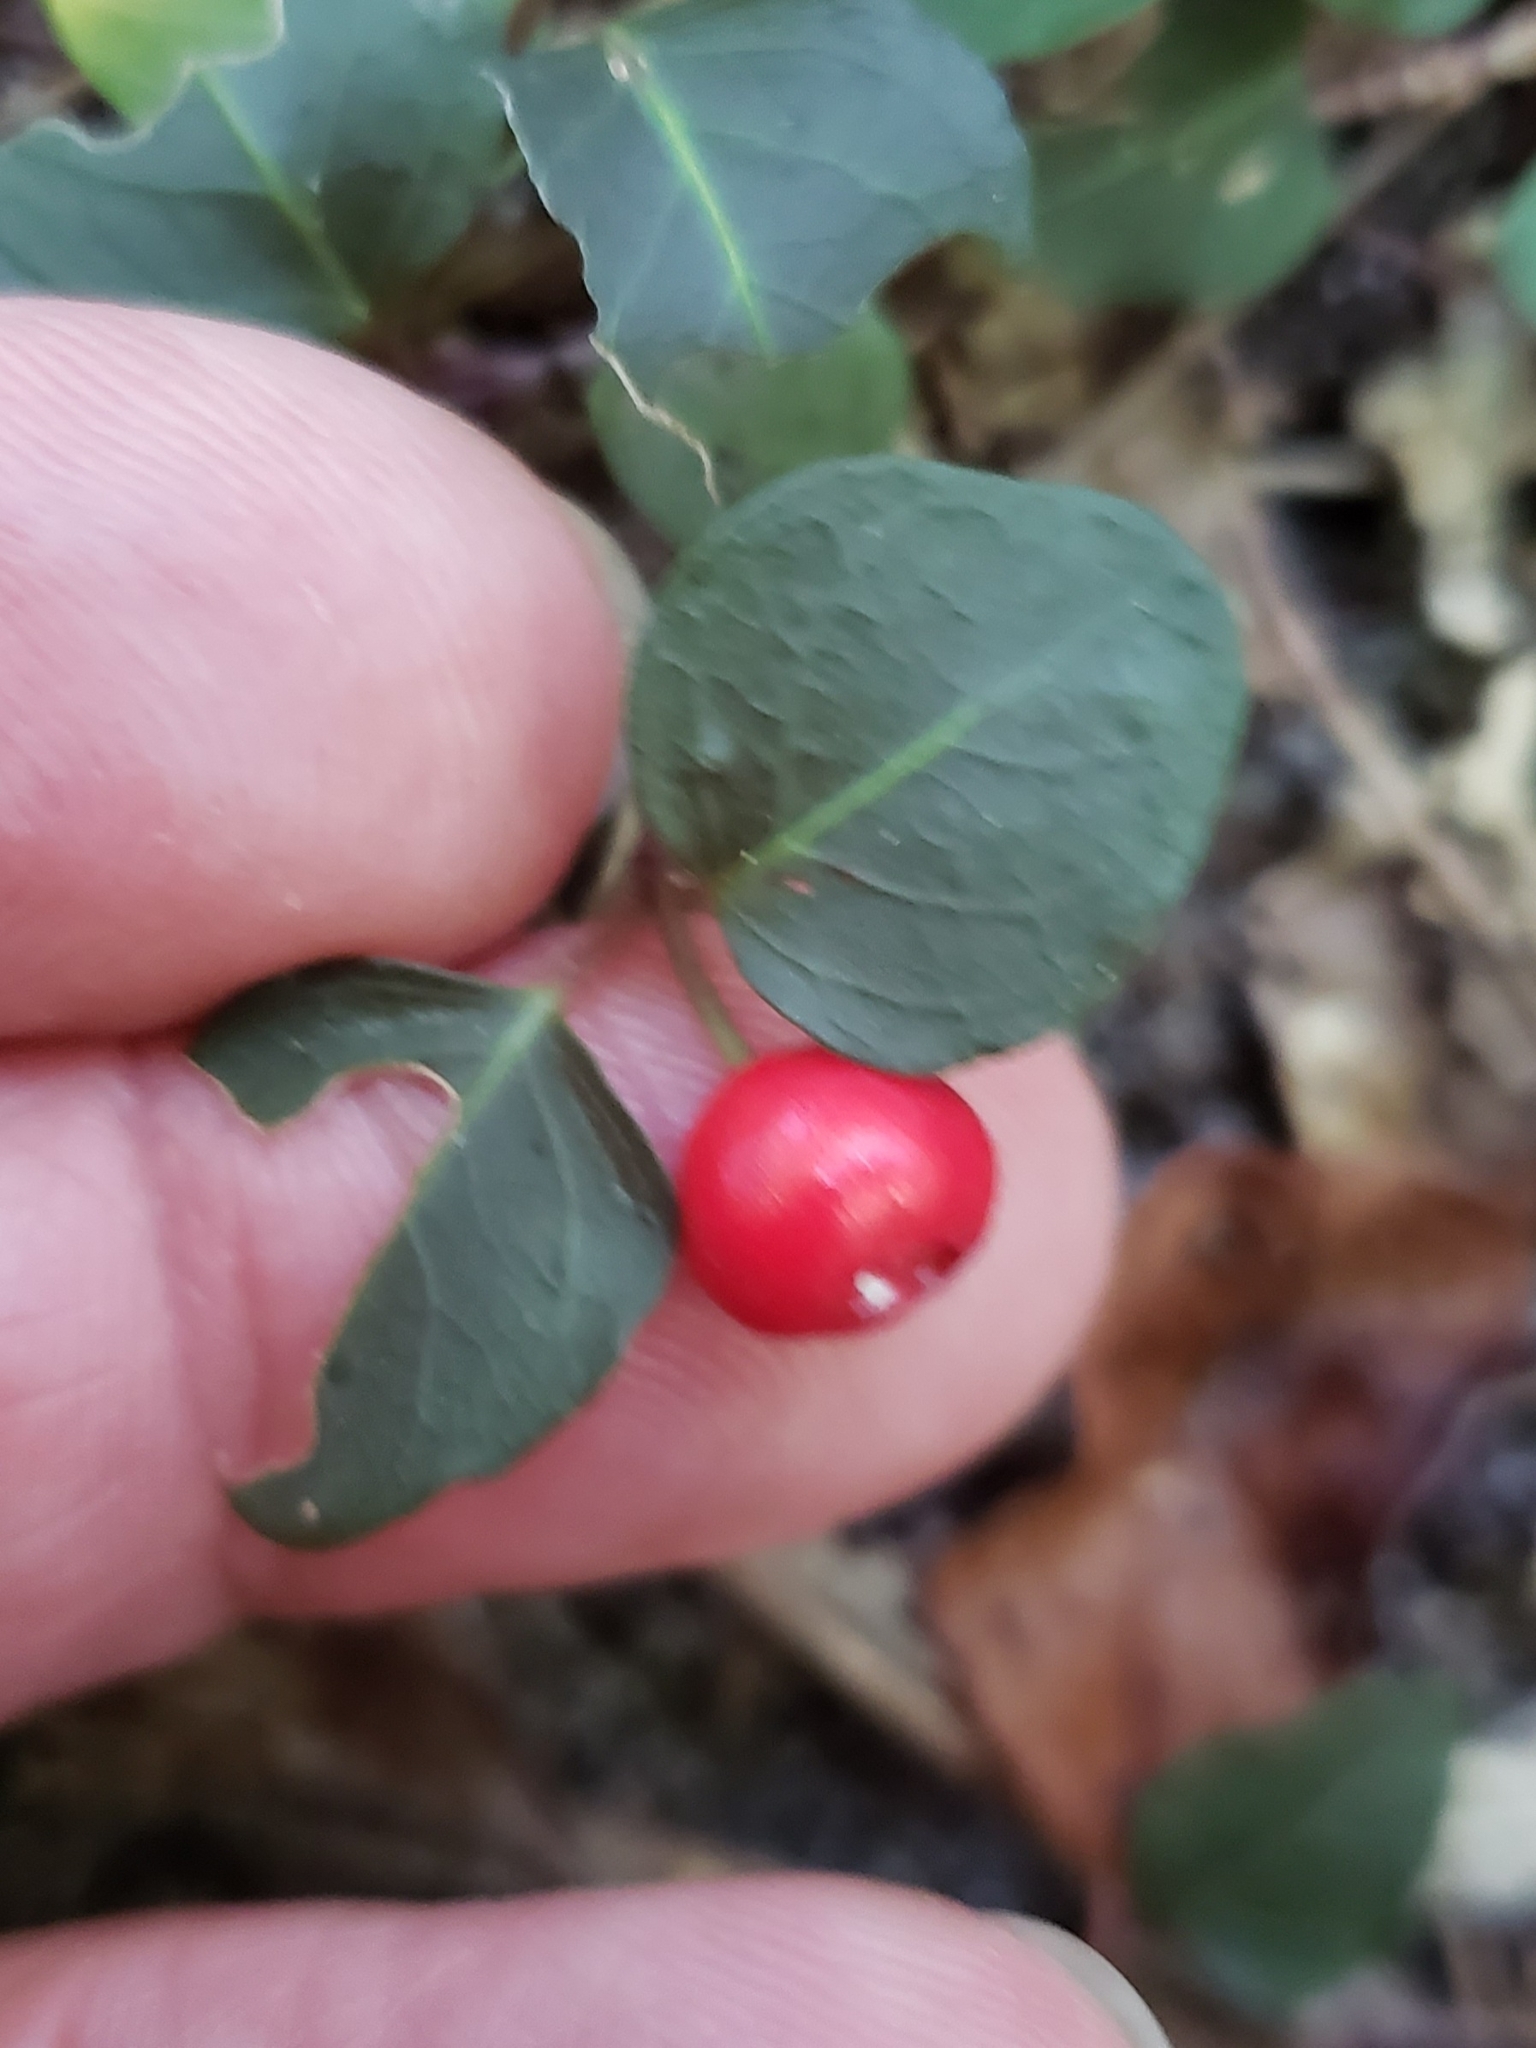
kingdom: Plantae
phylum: Tracheophyta
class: Magnoliopsida
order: Gentianales
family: Rubiaceae
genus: Mitchella
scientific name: Mitchella repens
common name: Partridge-berry
